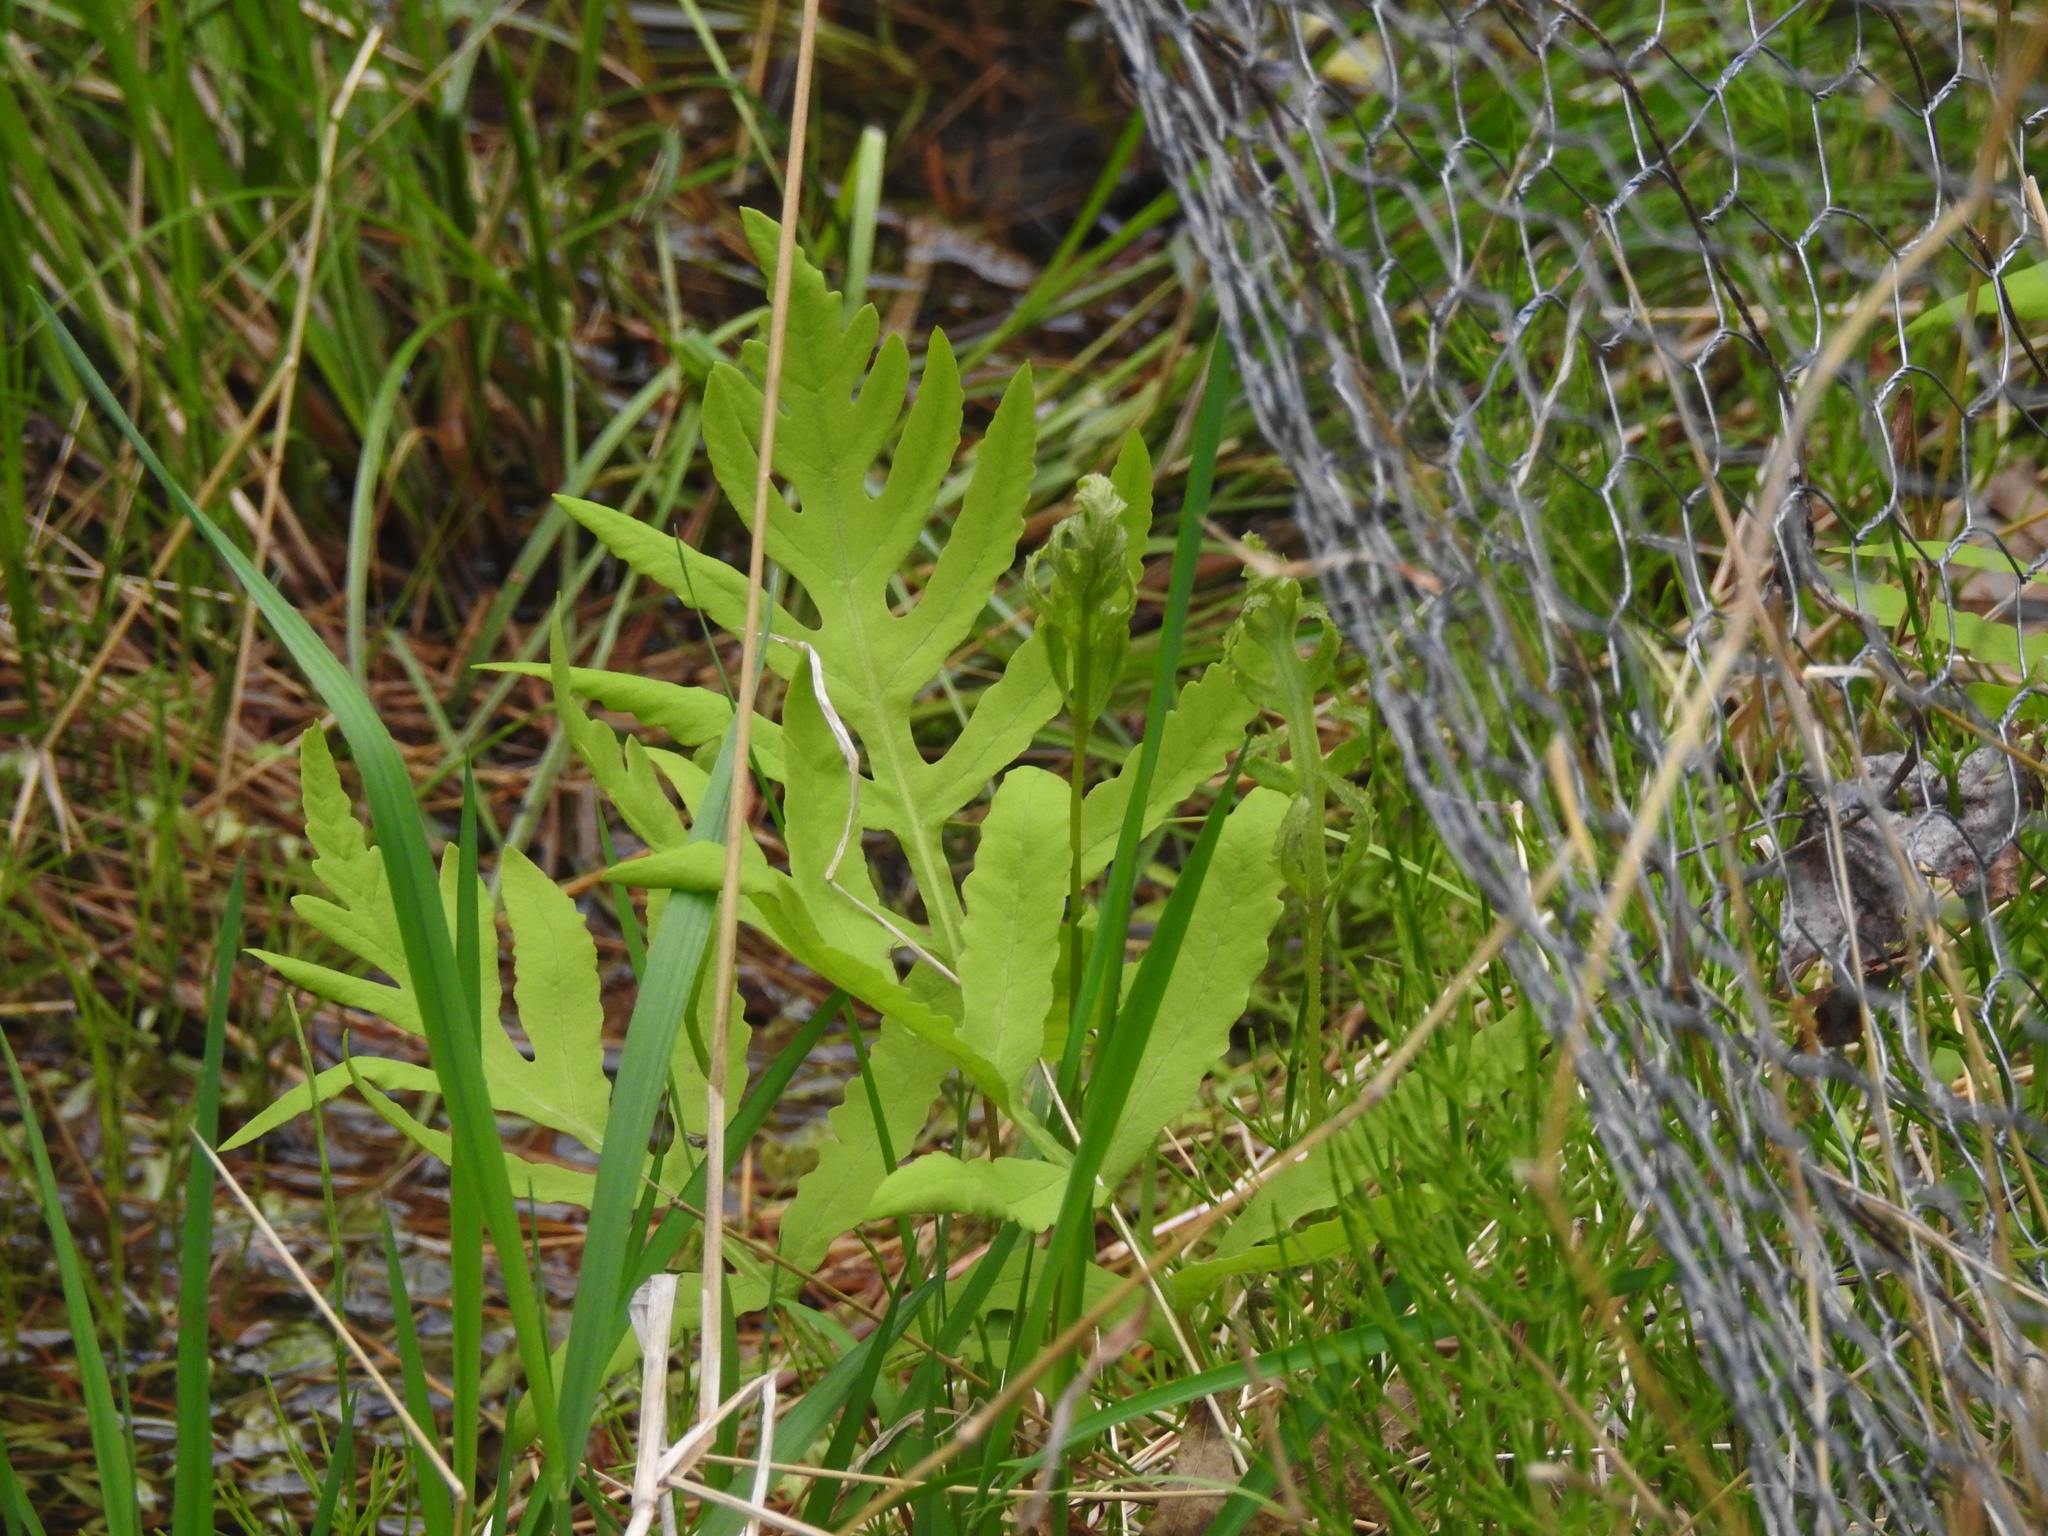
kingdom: Plantae
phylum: Tracheophyta
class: Polypodiopsida
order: Polypodiales
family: Onocleaceae
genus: Onoclea
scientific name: Onoclea sensibilis
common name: Sensitive fern
